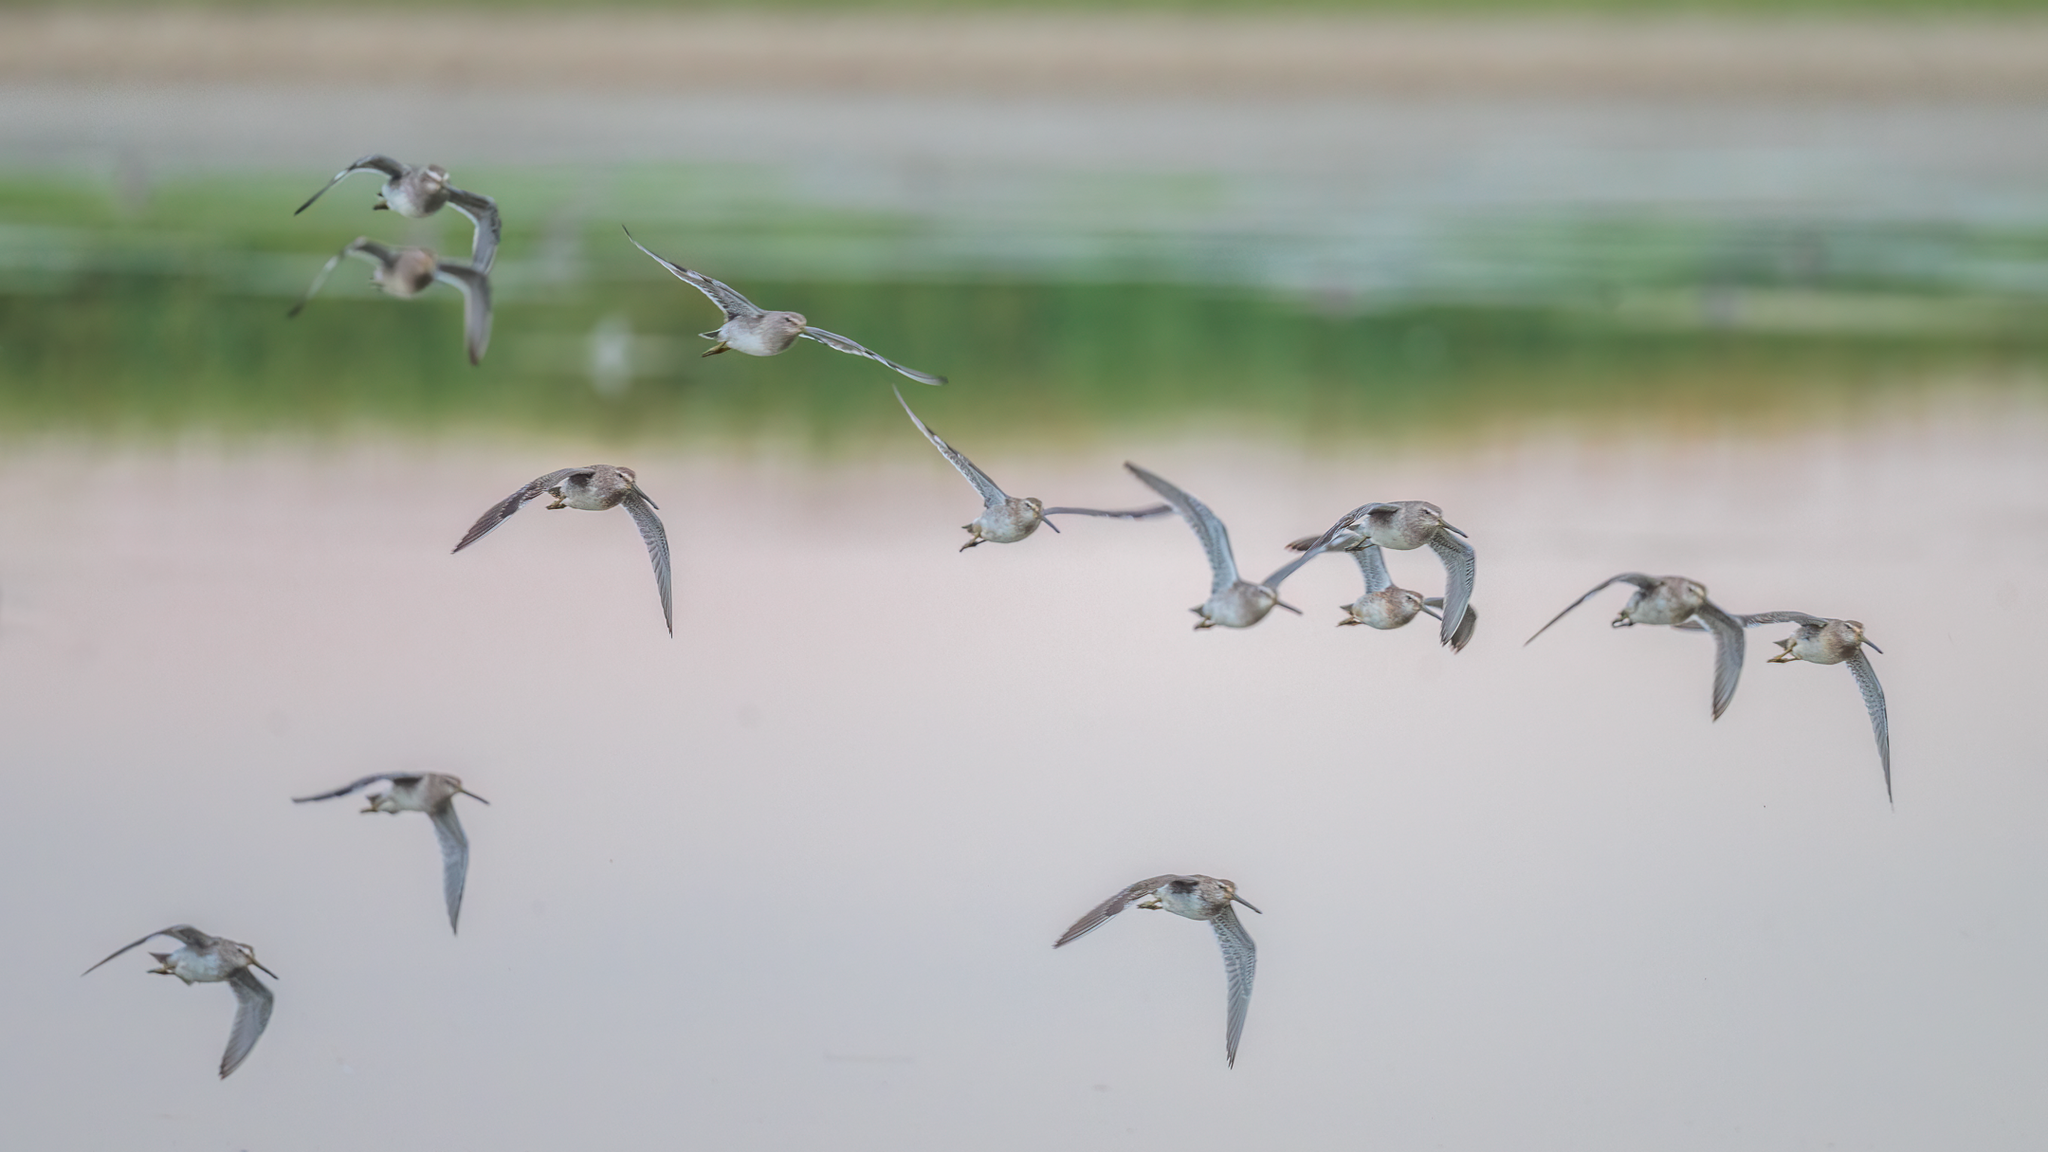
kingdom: Animalia
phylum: Chordata
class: Aves
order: Charadriiformes
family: Scolopacidae
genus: Limnodromus
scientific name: Limnodromus scolopaceus
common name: Long-billed dowitcher
